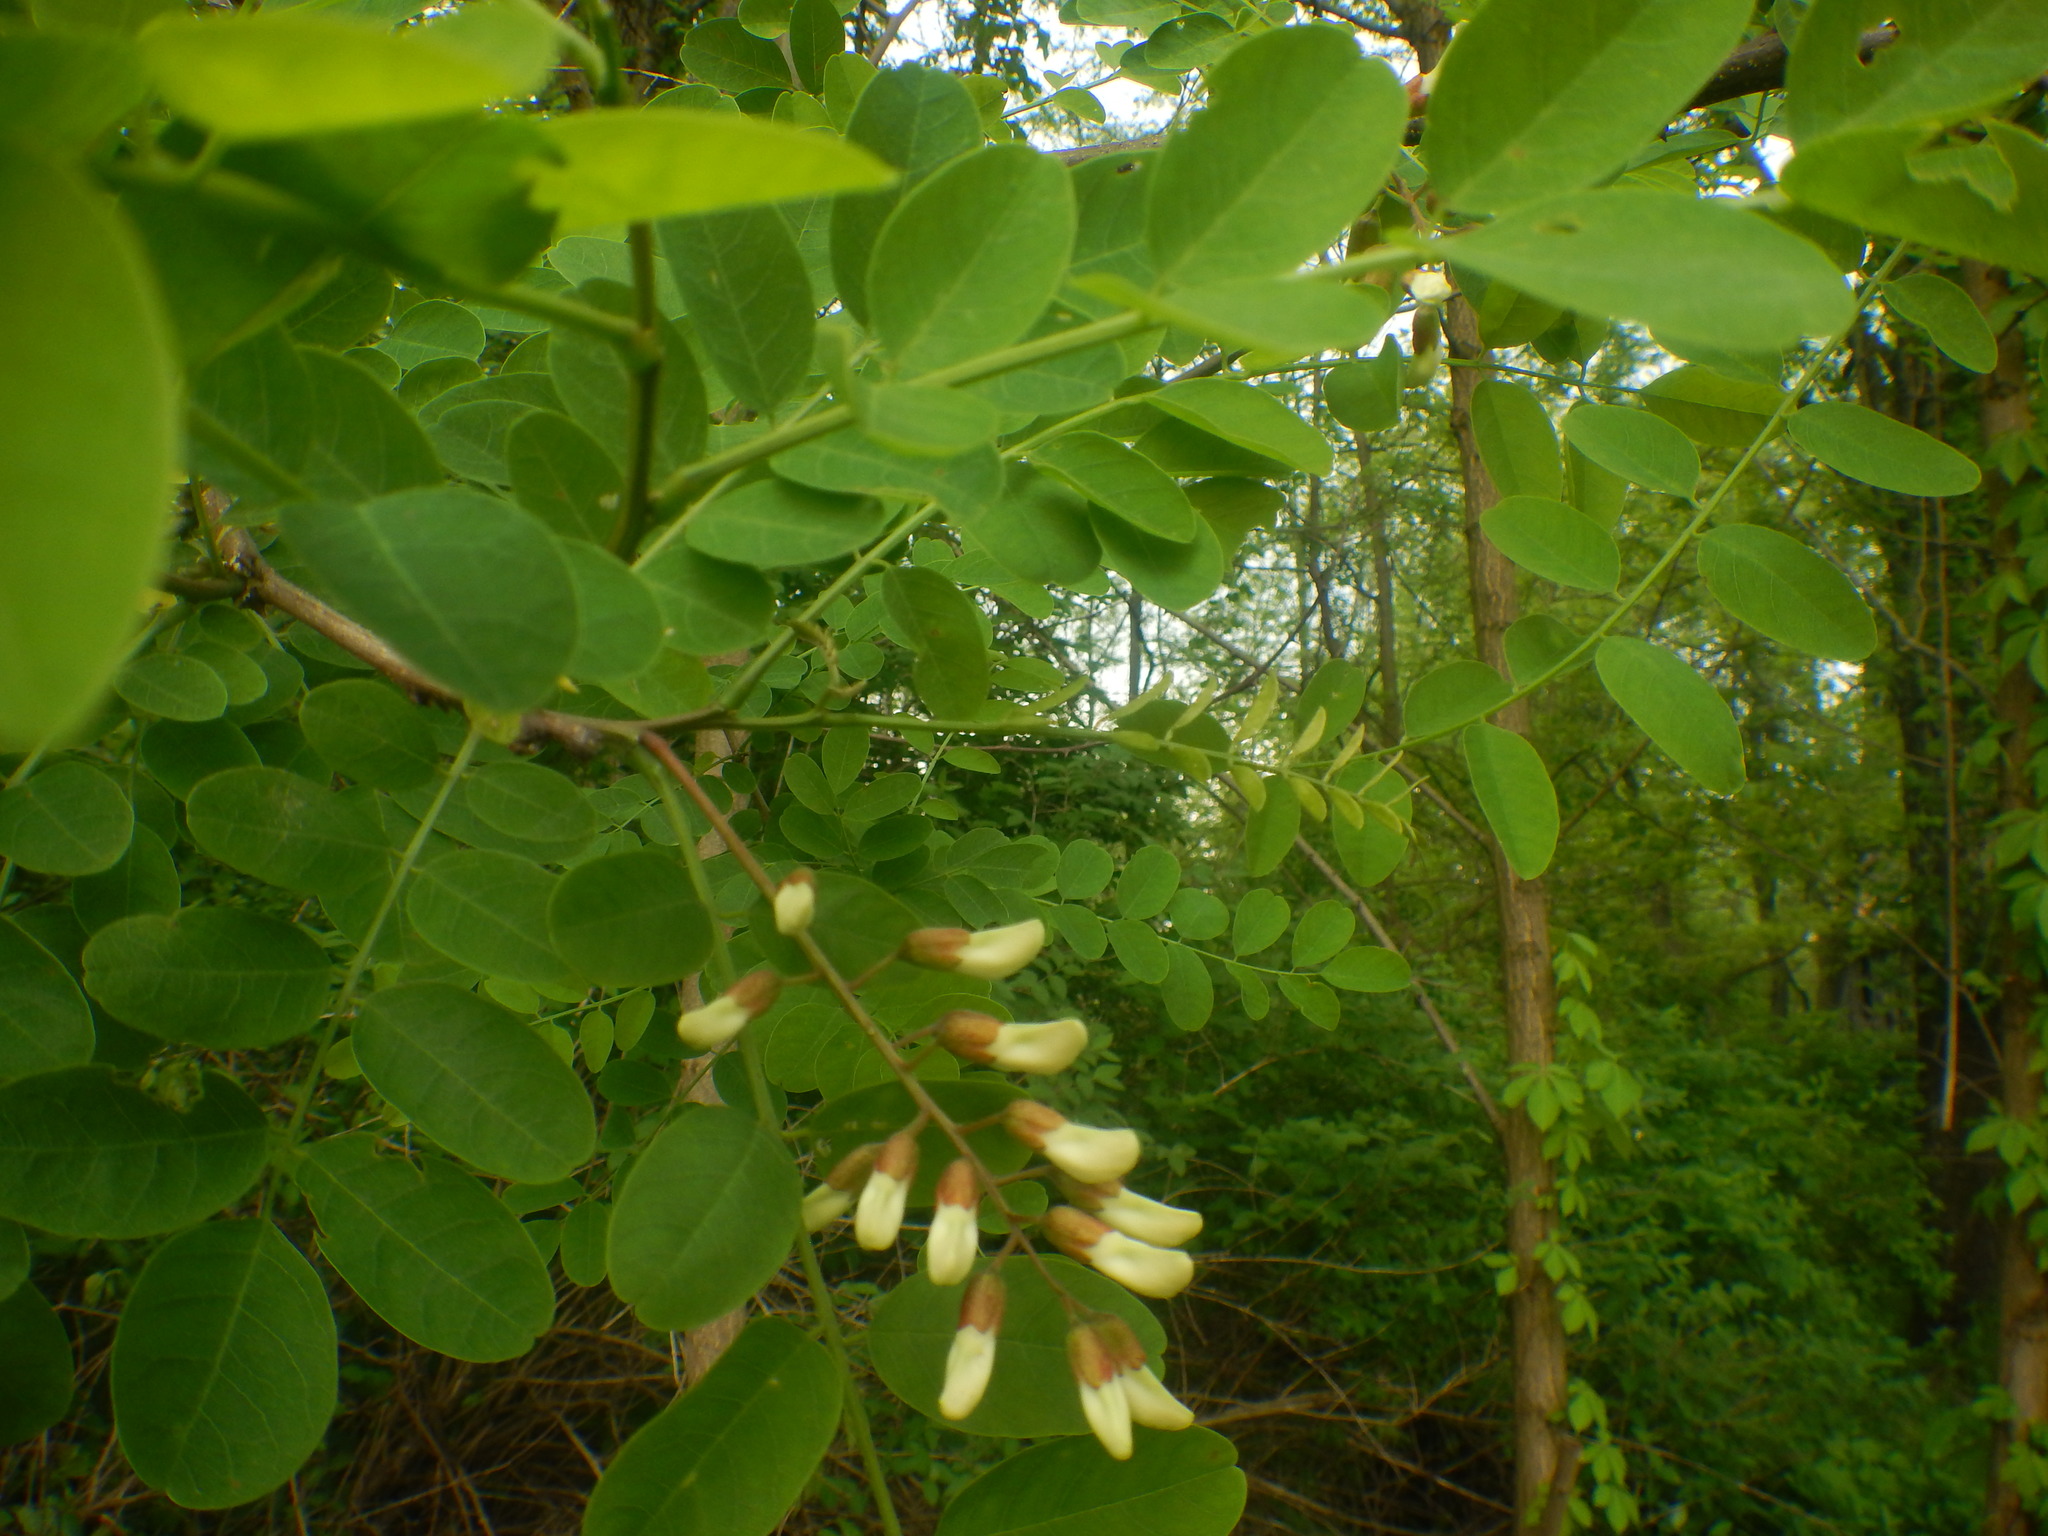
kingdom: Plantae
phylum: Tracheophyta
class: Magnoliopsida
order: Fabales
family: Fabaceae
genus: Robinia
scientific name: Robinia pseudoacacia
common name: Black locust
